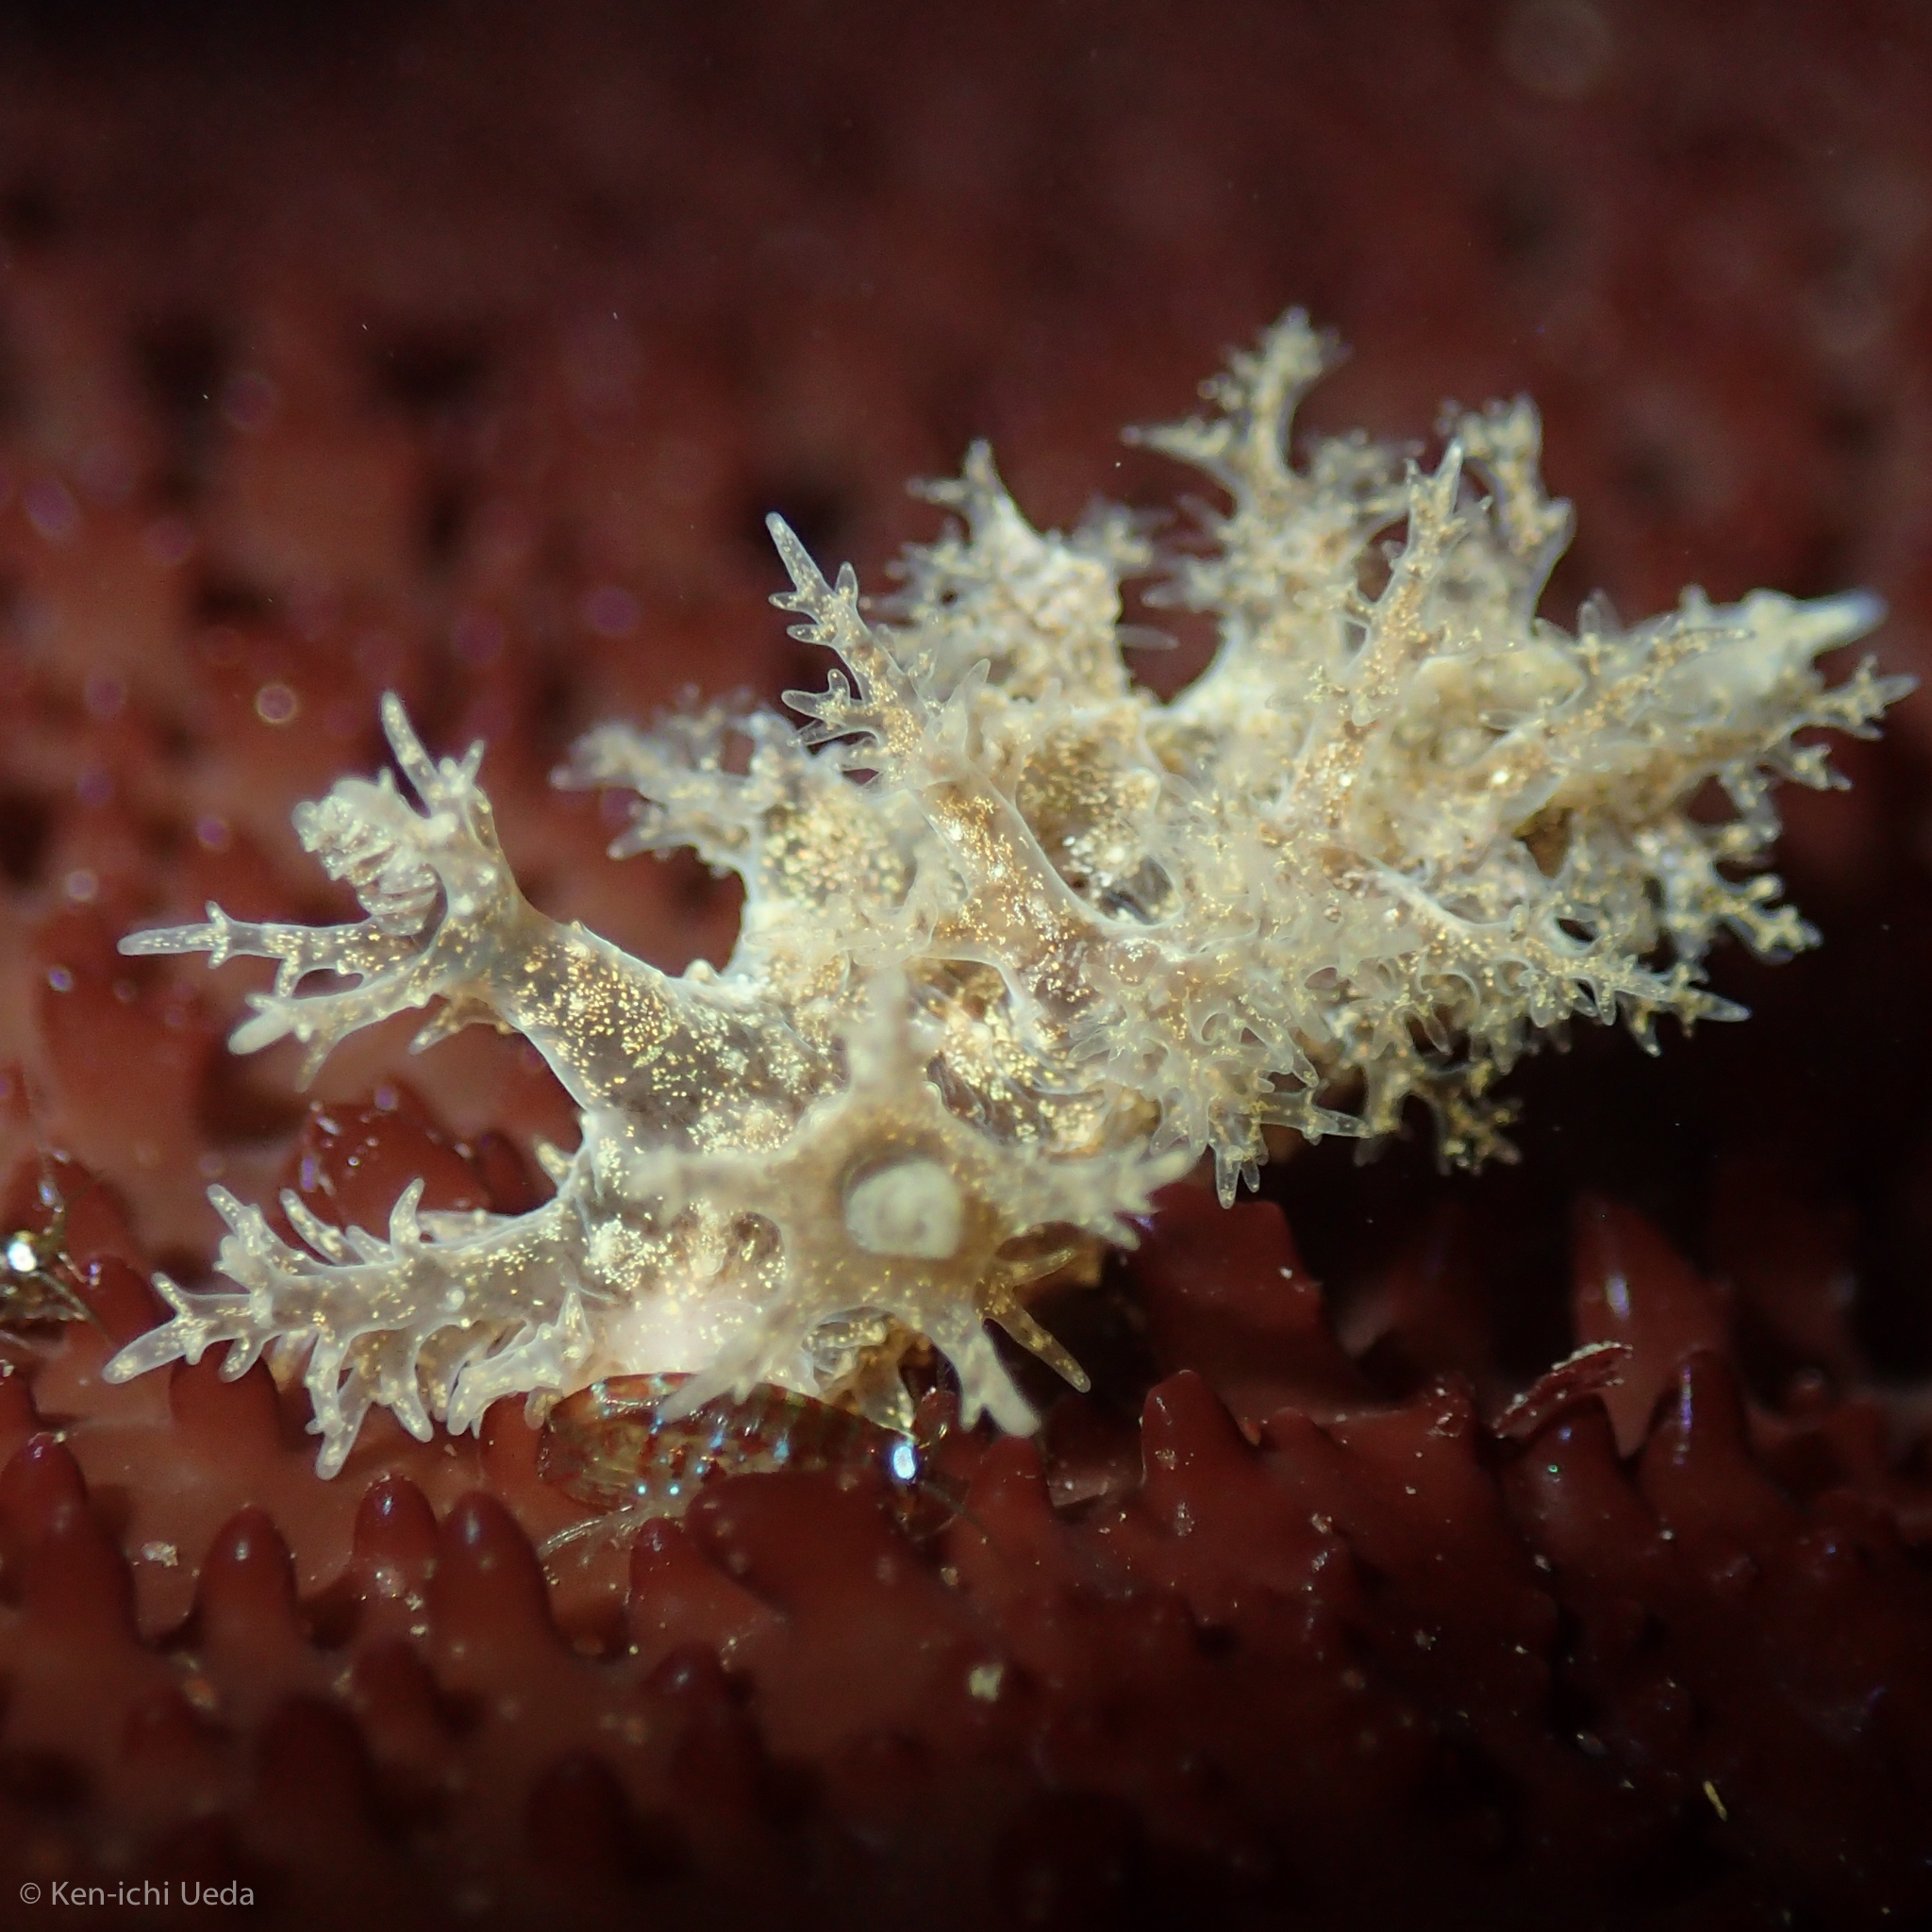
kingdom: Animalia
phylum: Mollusca
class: Gastropoda
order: Nudibranchia
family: Dendronotidae
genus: Dendronotus
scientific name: Dendronotus venustus
